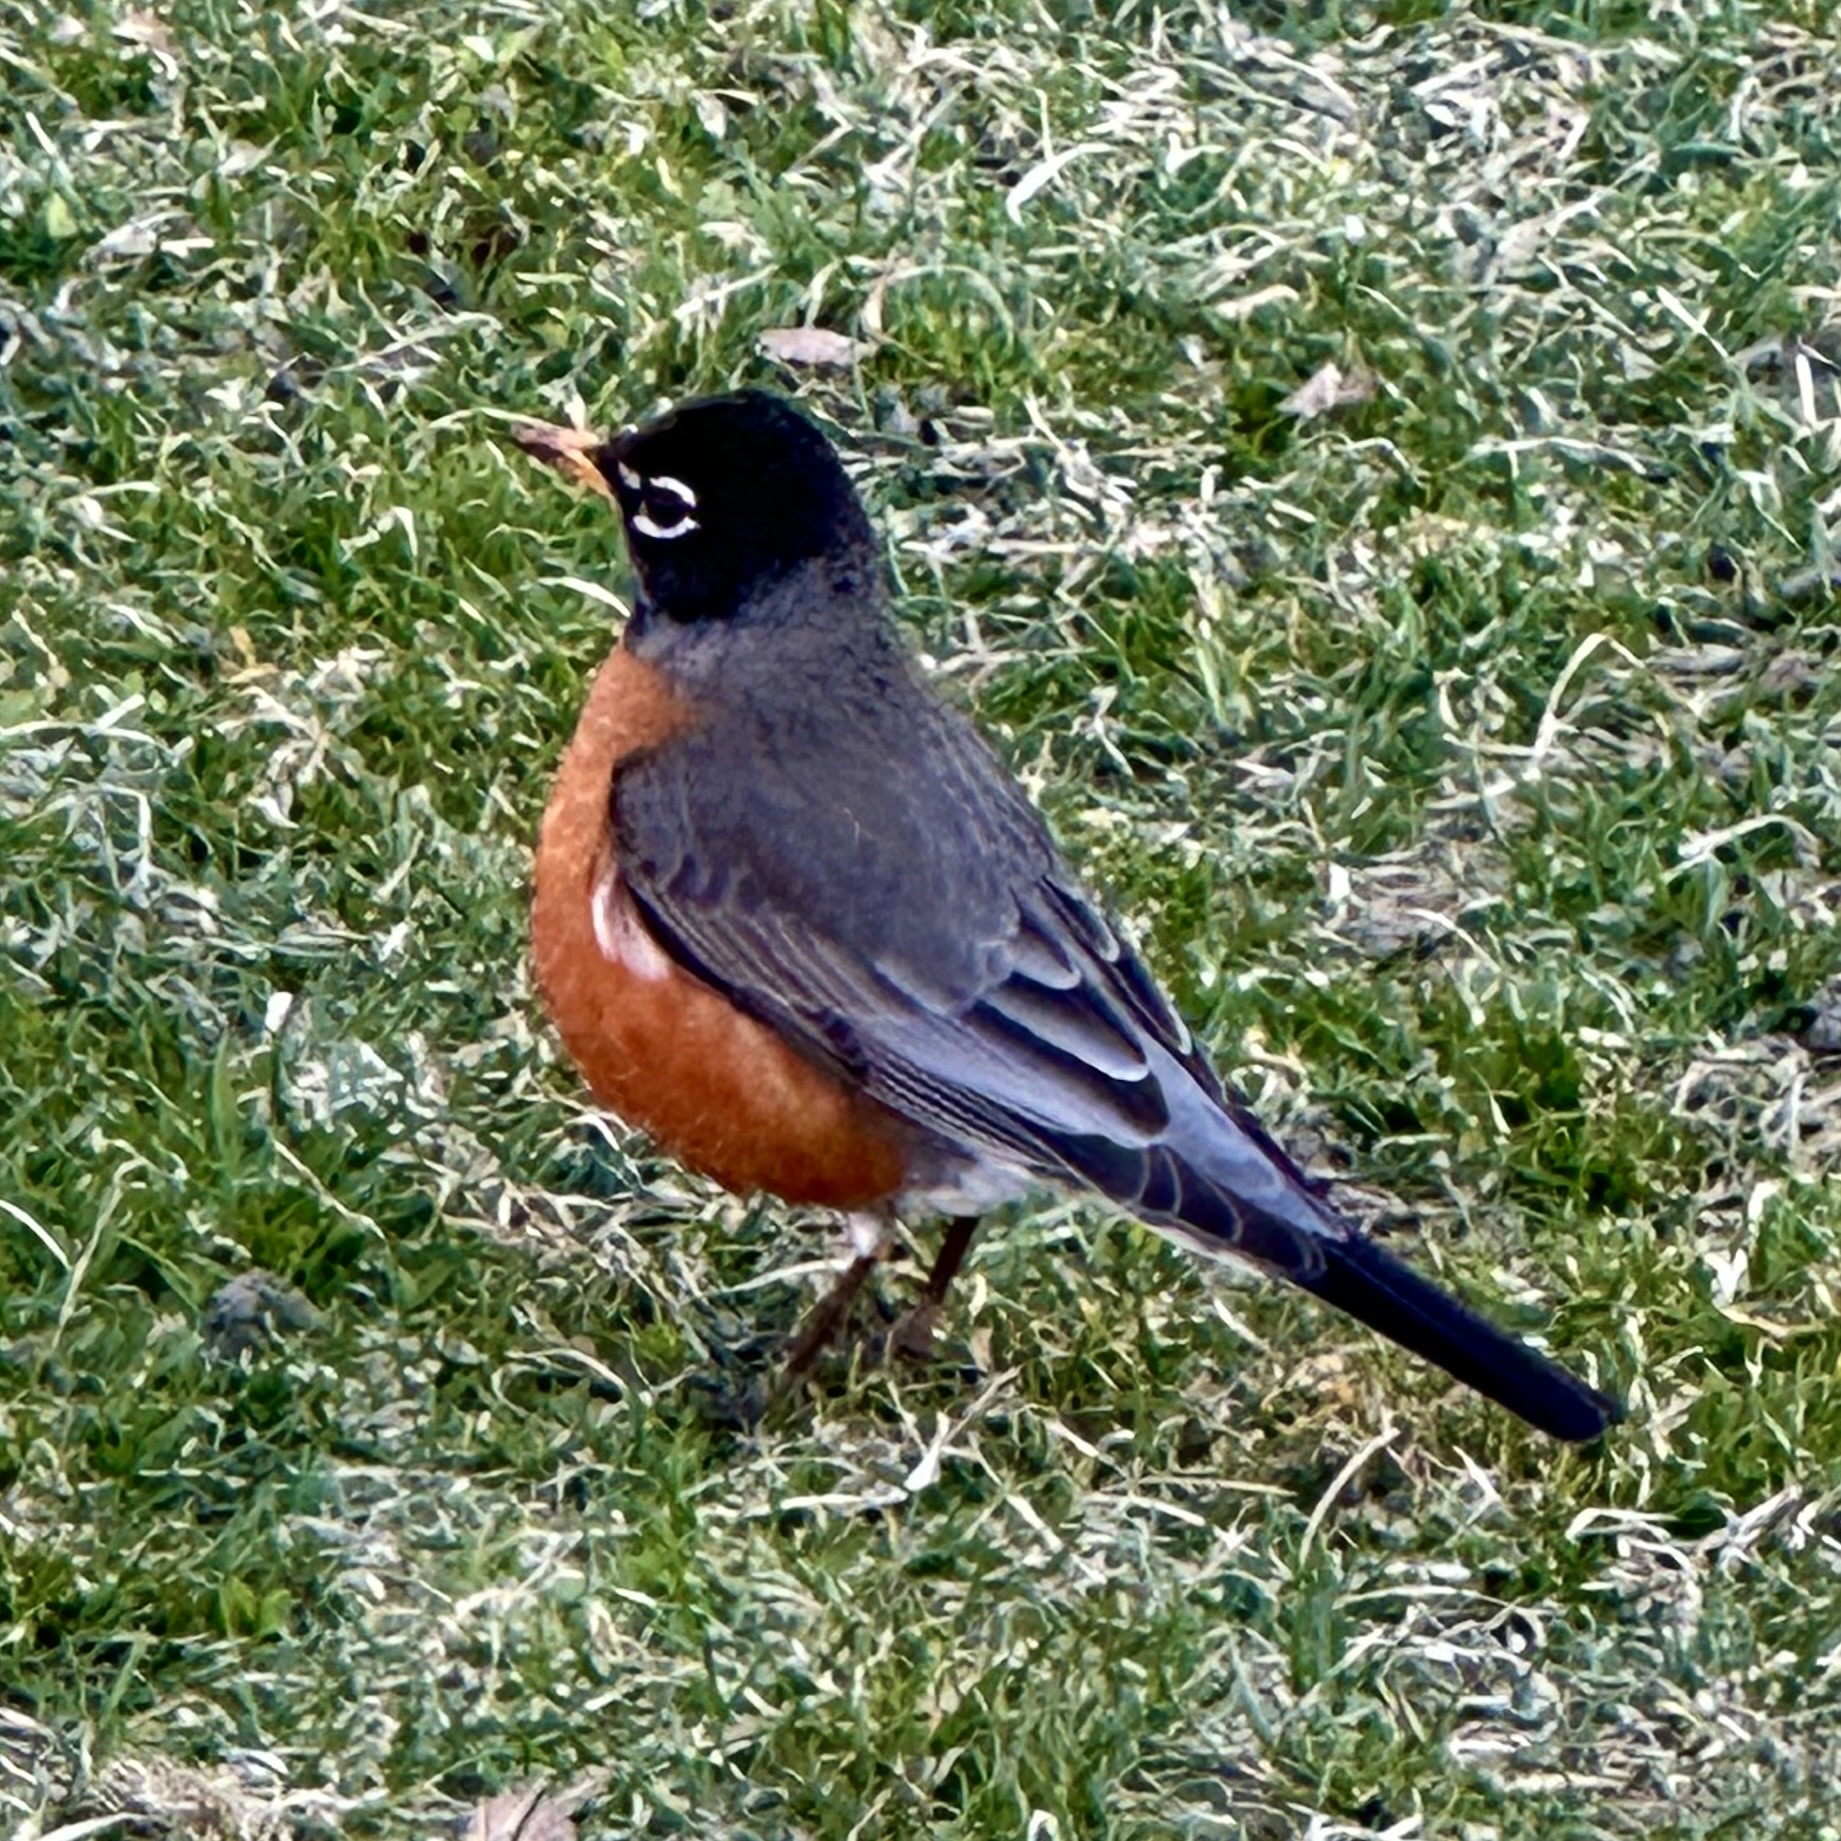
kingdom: Animalia
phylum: Chordata
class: Aves
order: Passeriformes
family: Turdidae
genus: Turdus
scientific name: Turdus migratorius
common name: American robin
